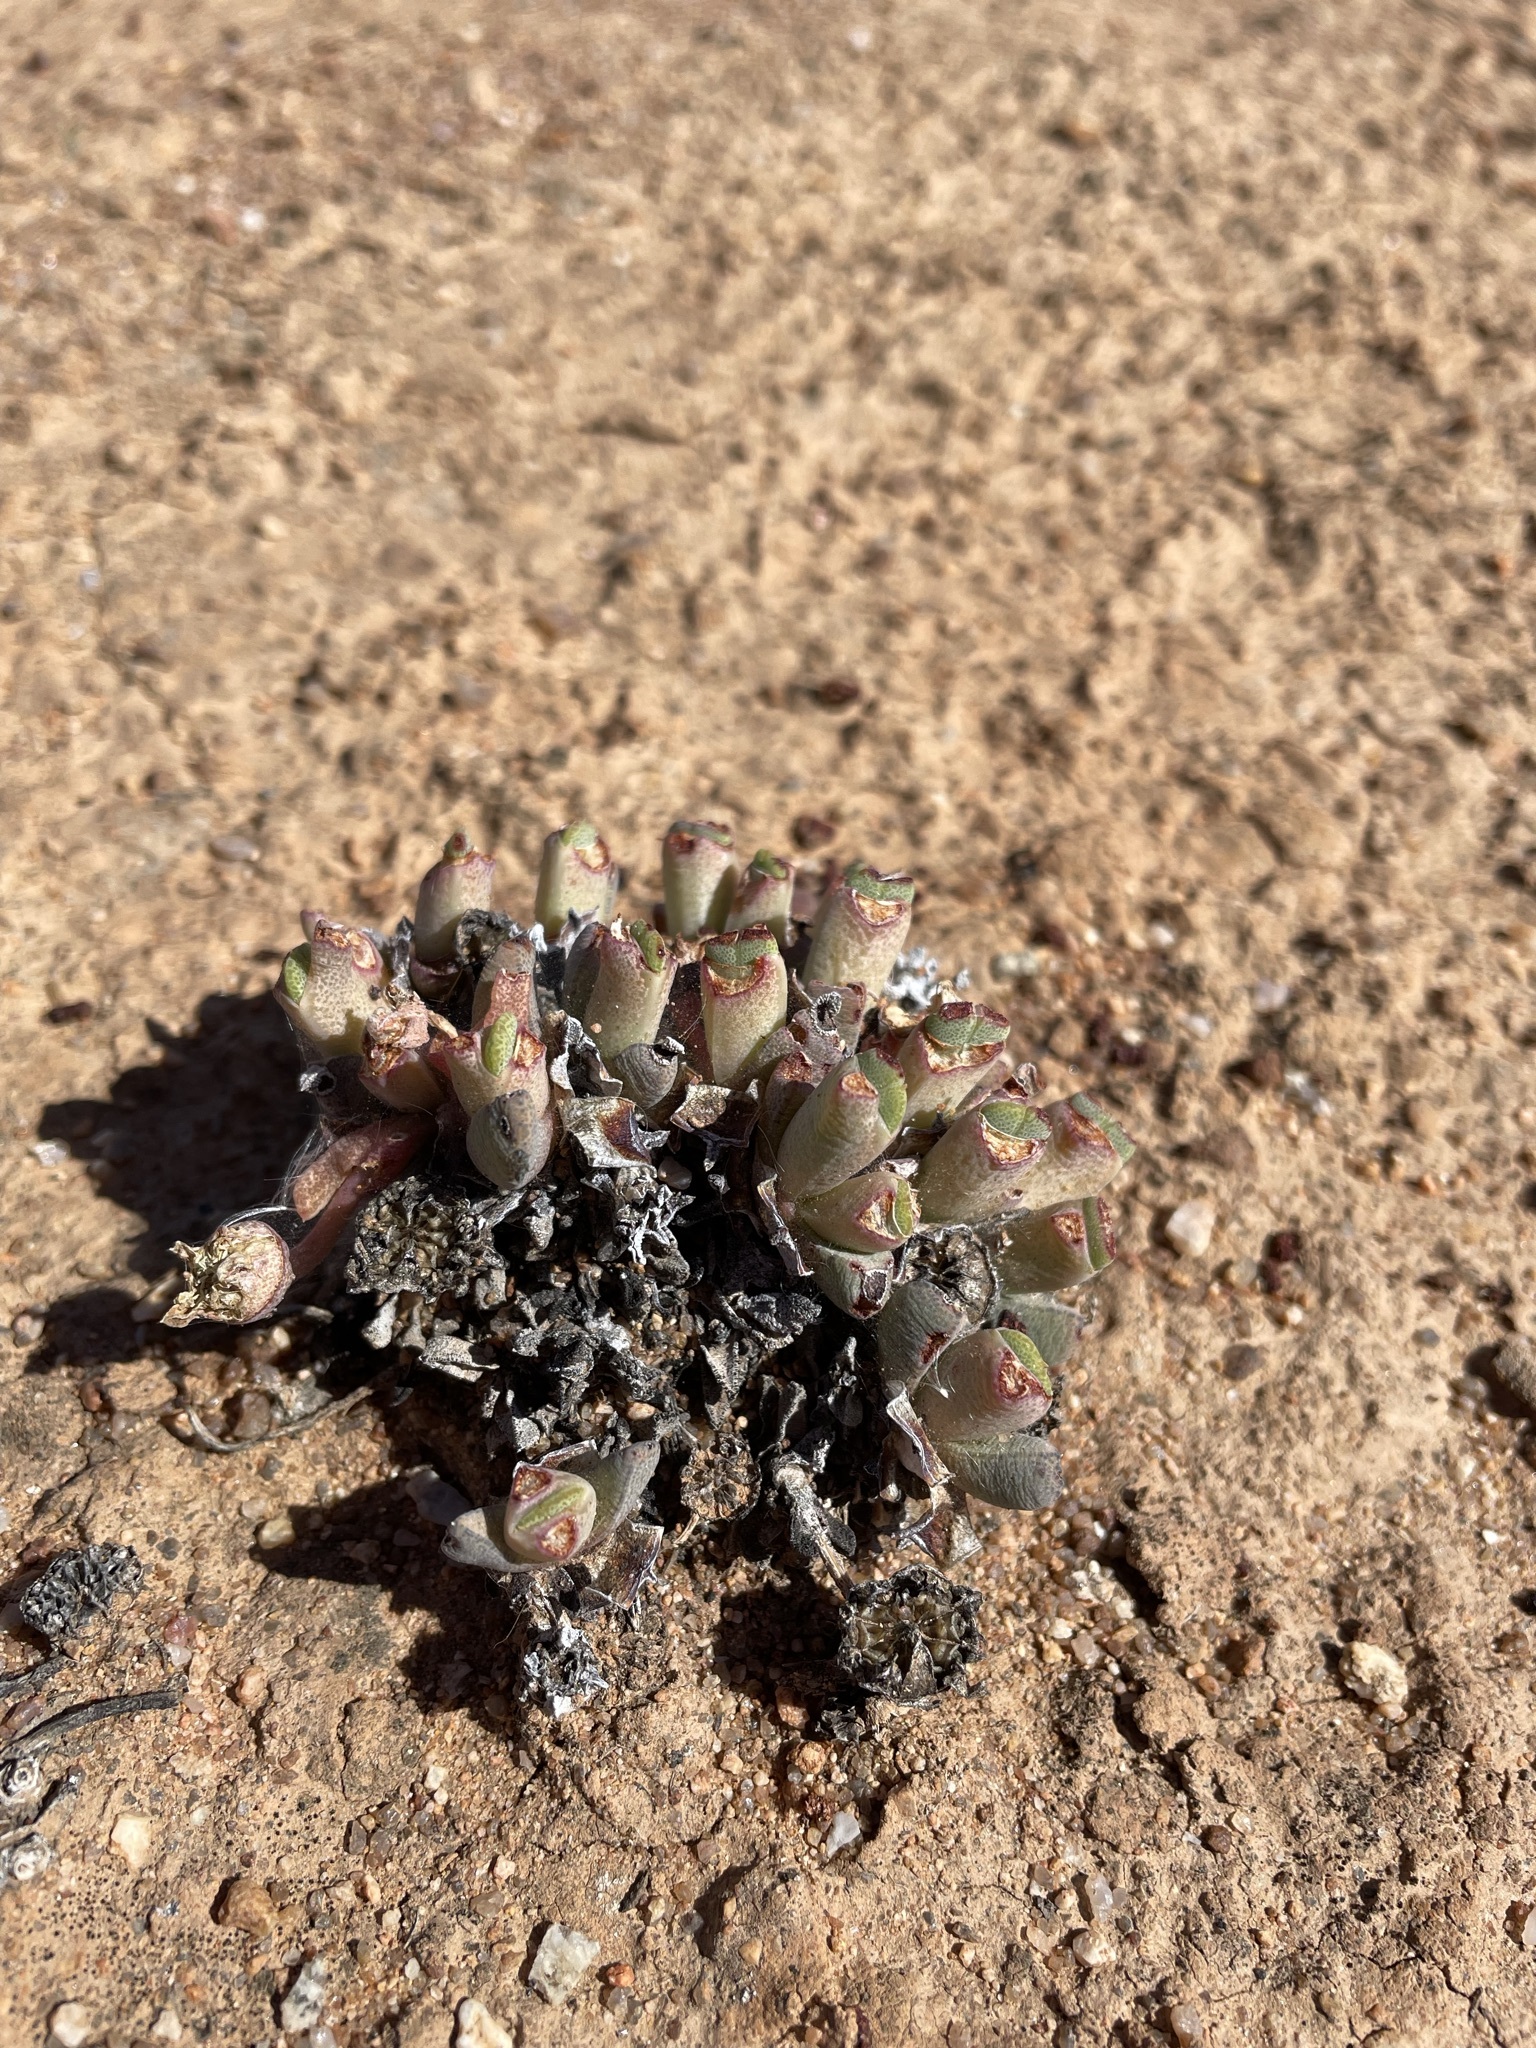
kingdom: Plantae
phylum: Tracheophyta
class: Magnoliopsida
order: Caryophyllales
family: Aizoaceae
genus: Cheiridopsis
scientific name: Cheiridopsis namaquensis
